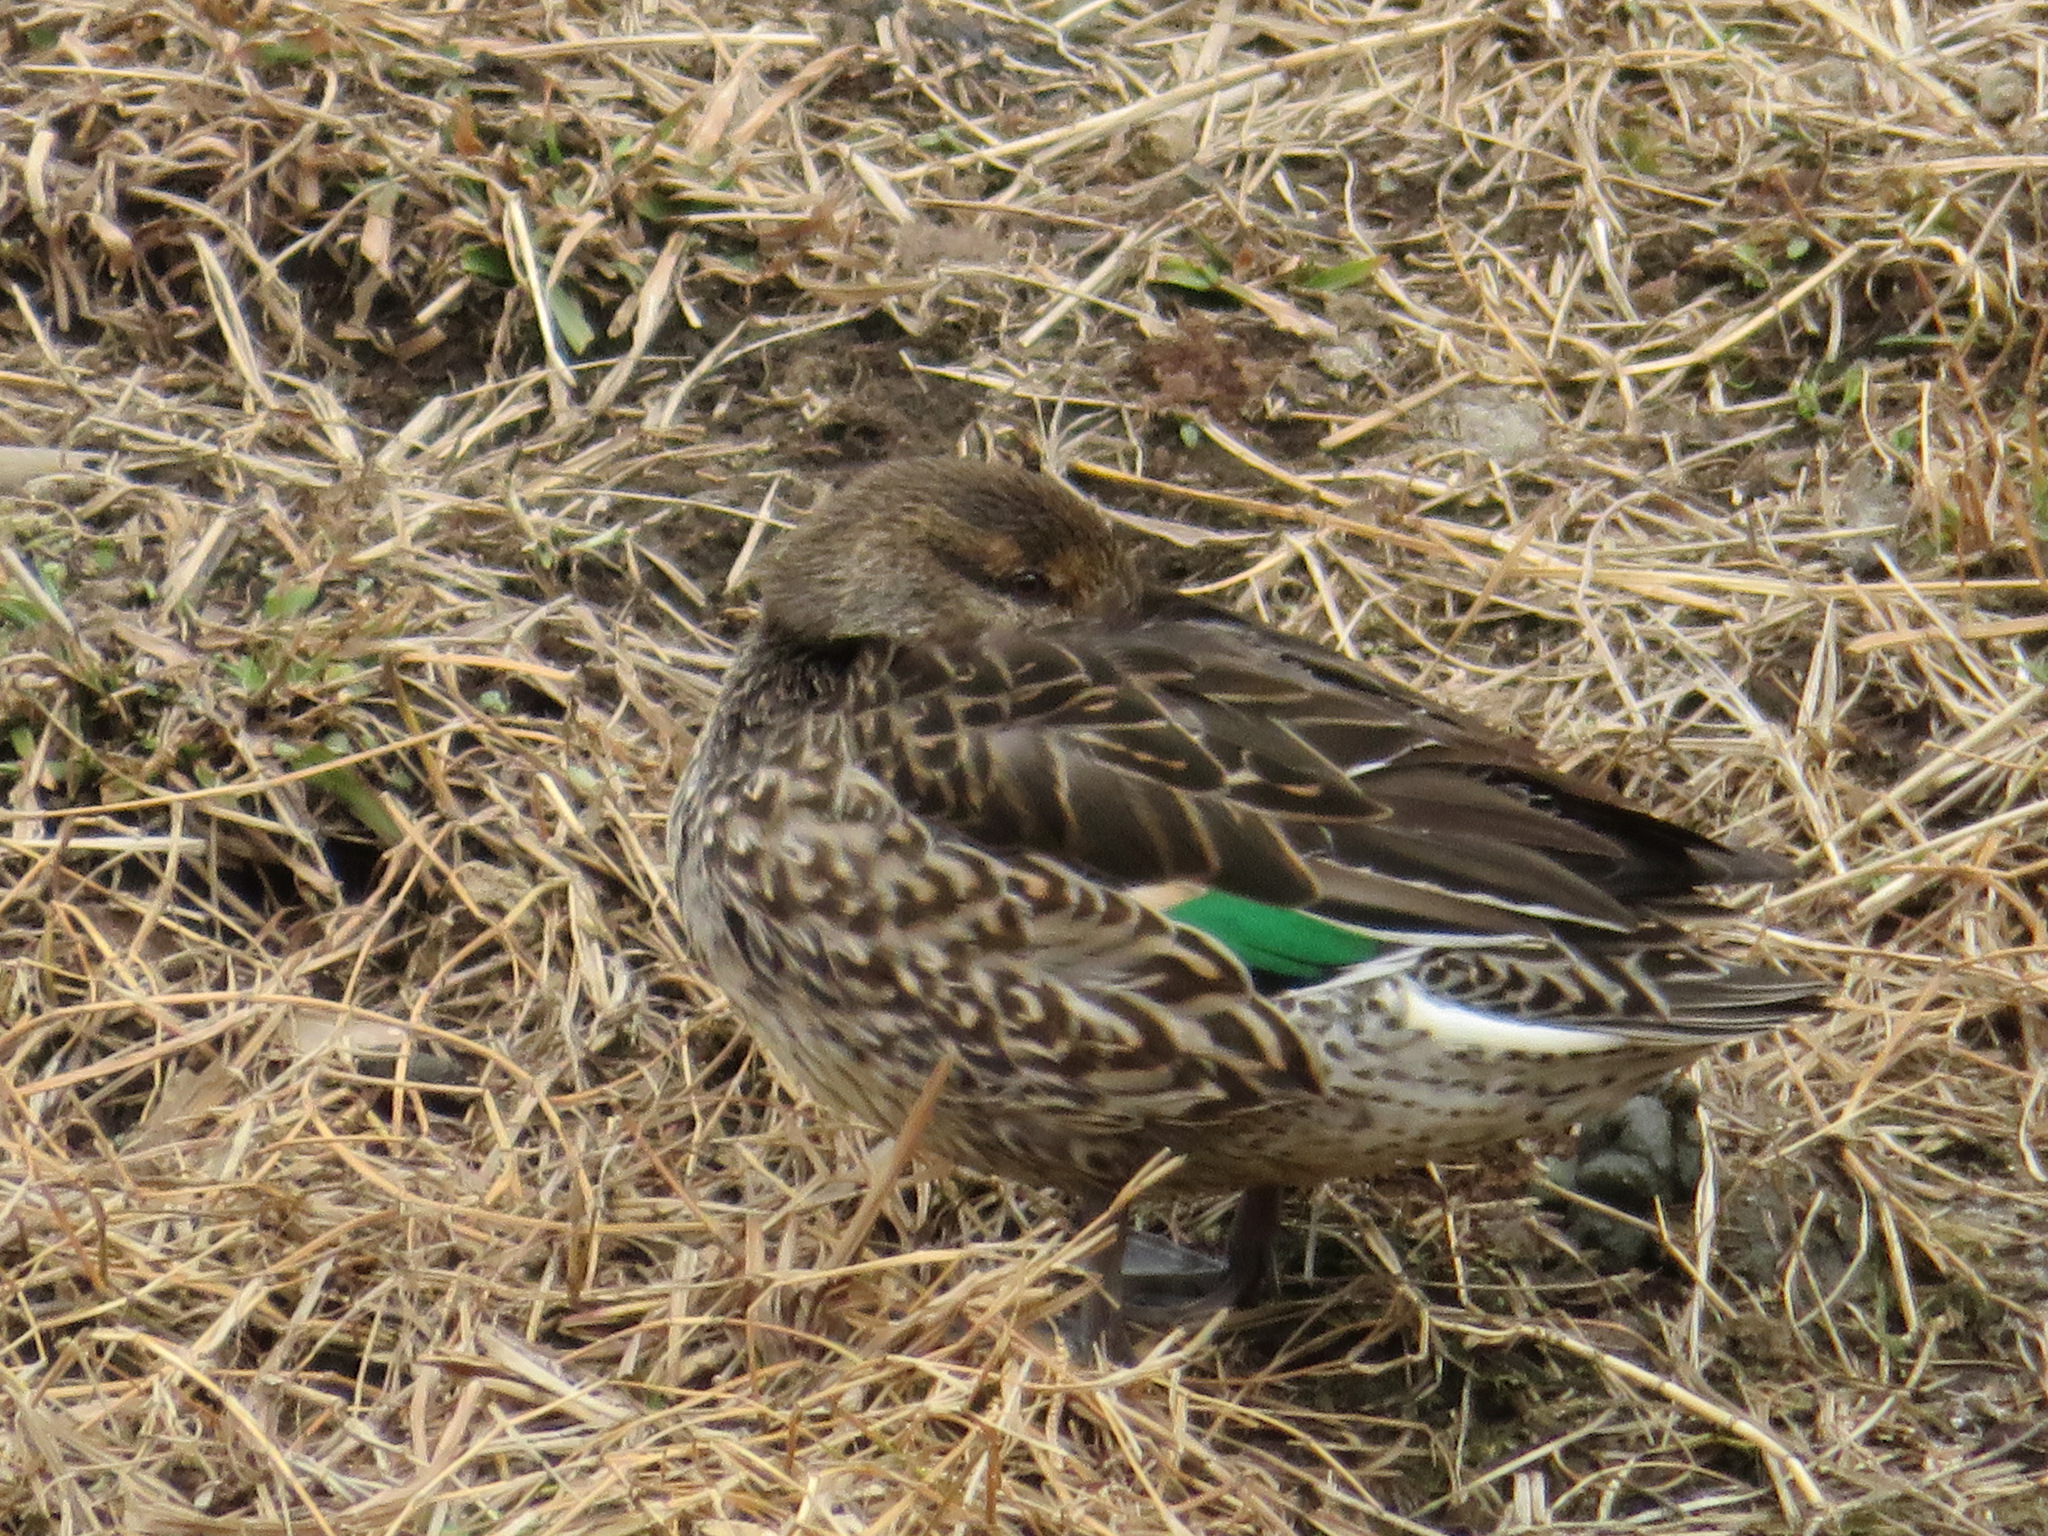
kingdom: Animalia
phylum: Chordata
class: Aves
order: Anseriformes
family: Anatidae
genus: Anas
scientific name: Anas crecca
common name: Eurasian teal
